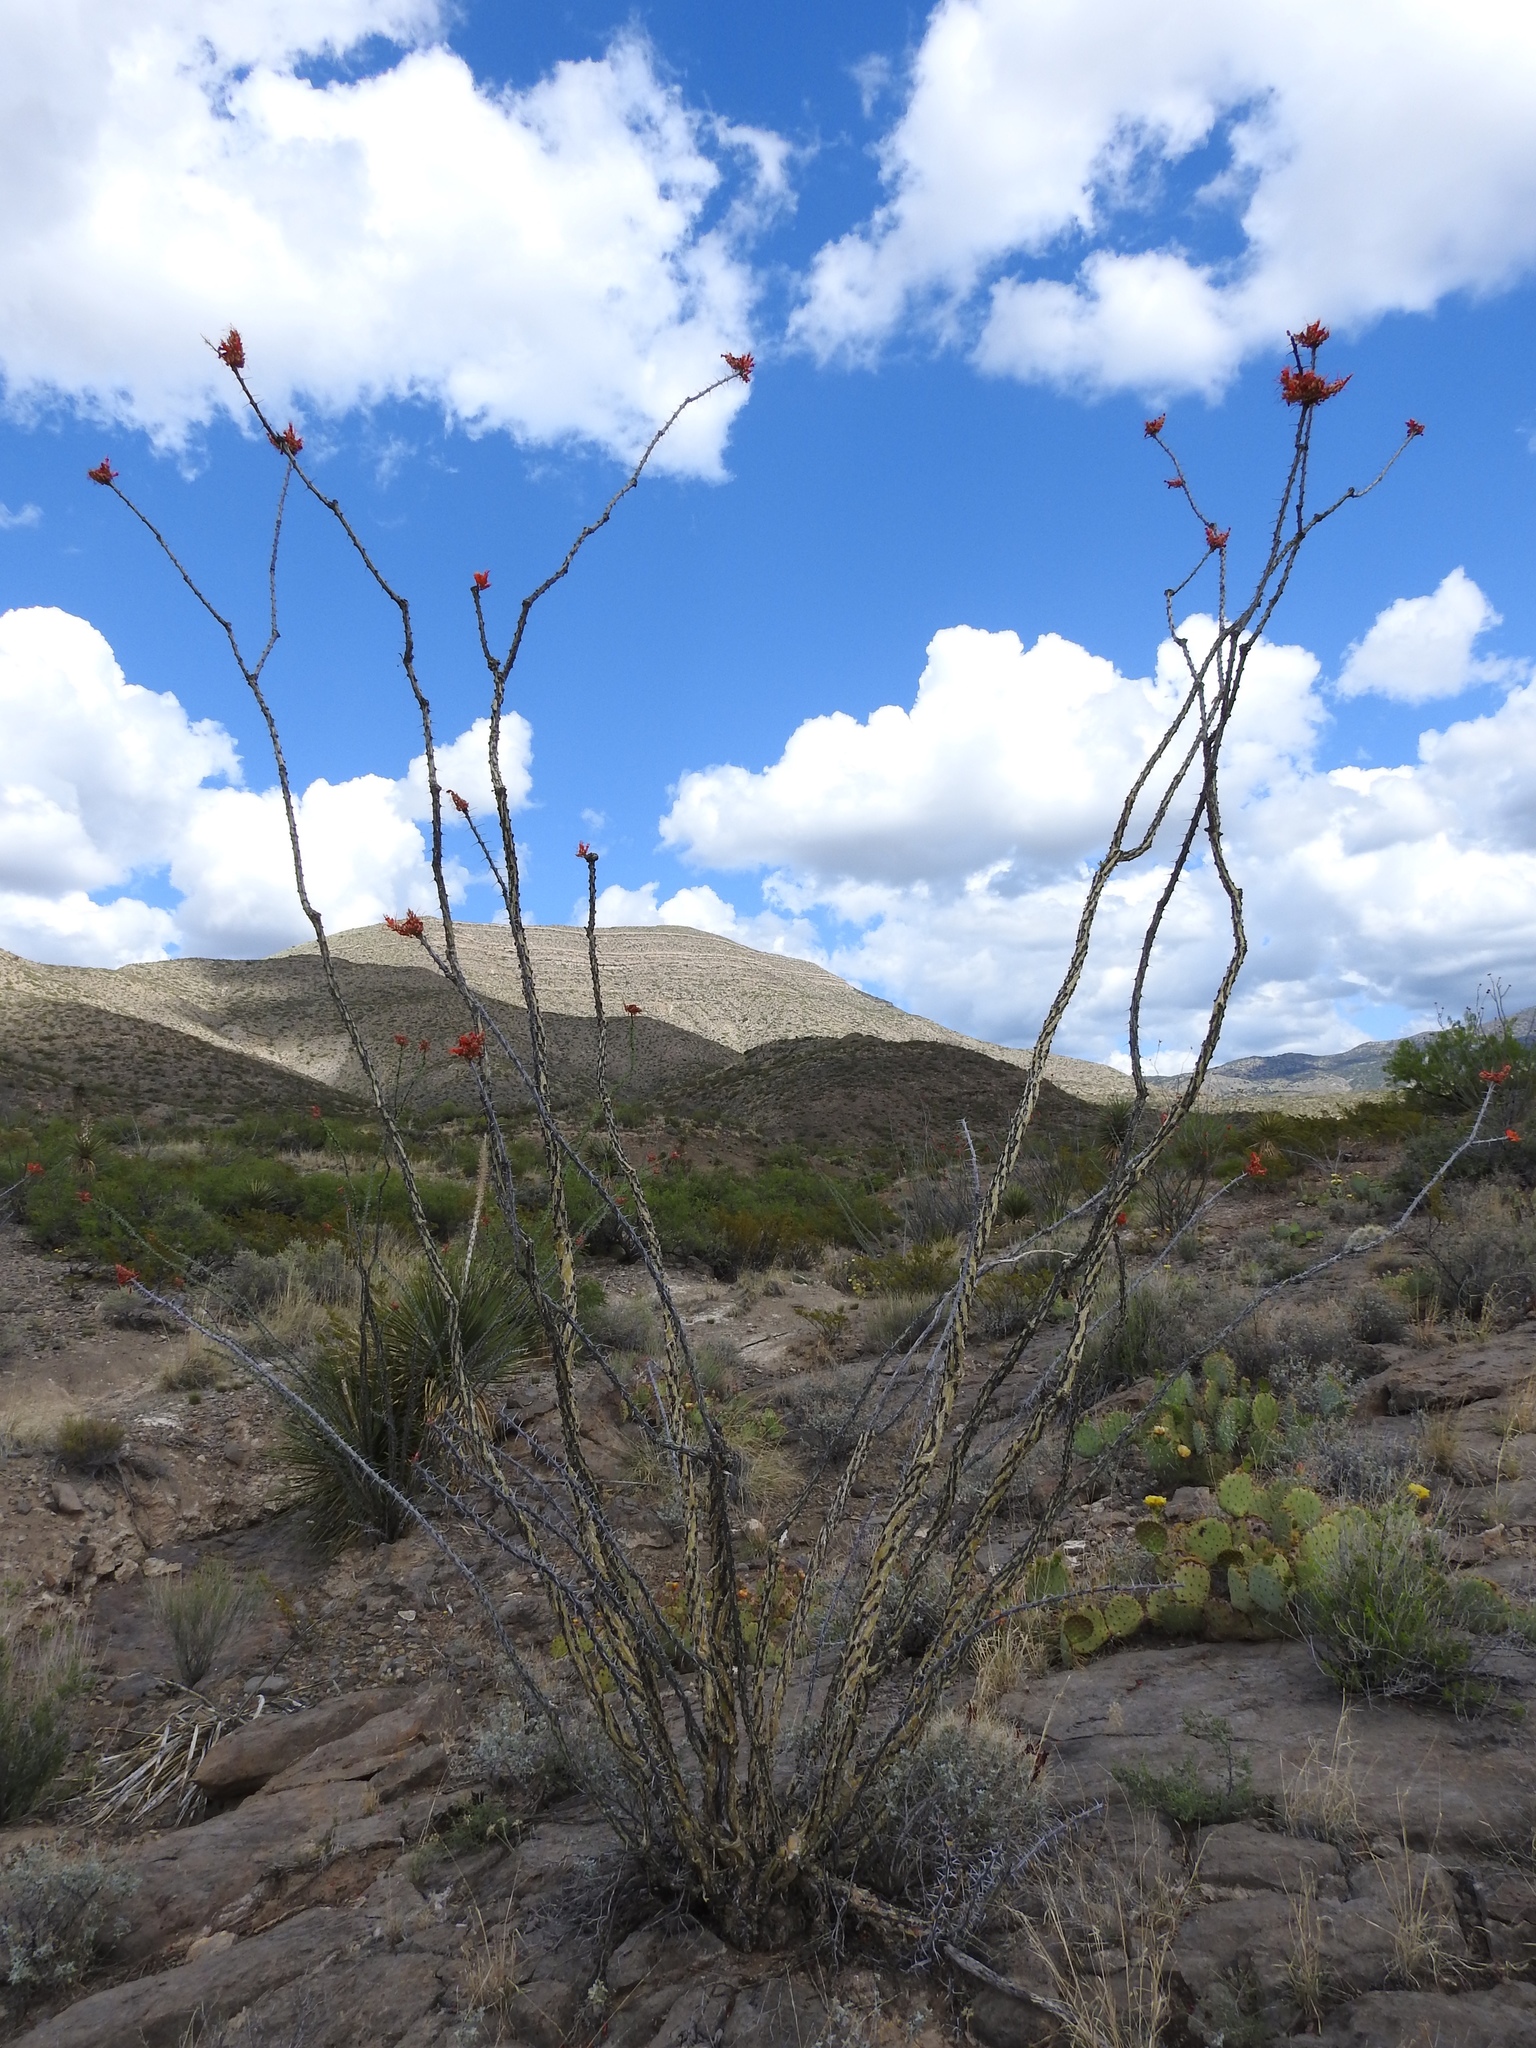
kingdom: Plantae
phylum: Tracheophyta
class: Magnoliopsida
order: Ericales
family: Fouquieriaceae
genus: Fouquieria
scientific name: Fouquieria splendens
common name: Vine-cactus
